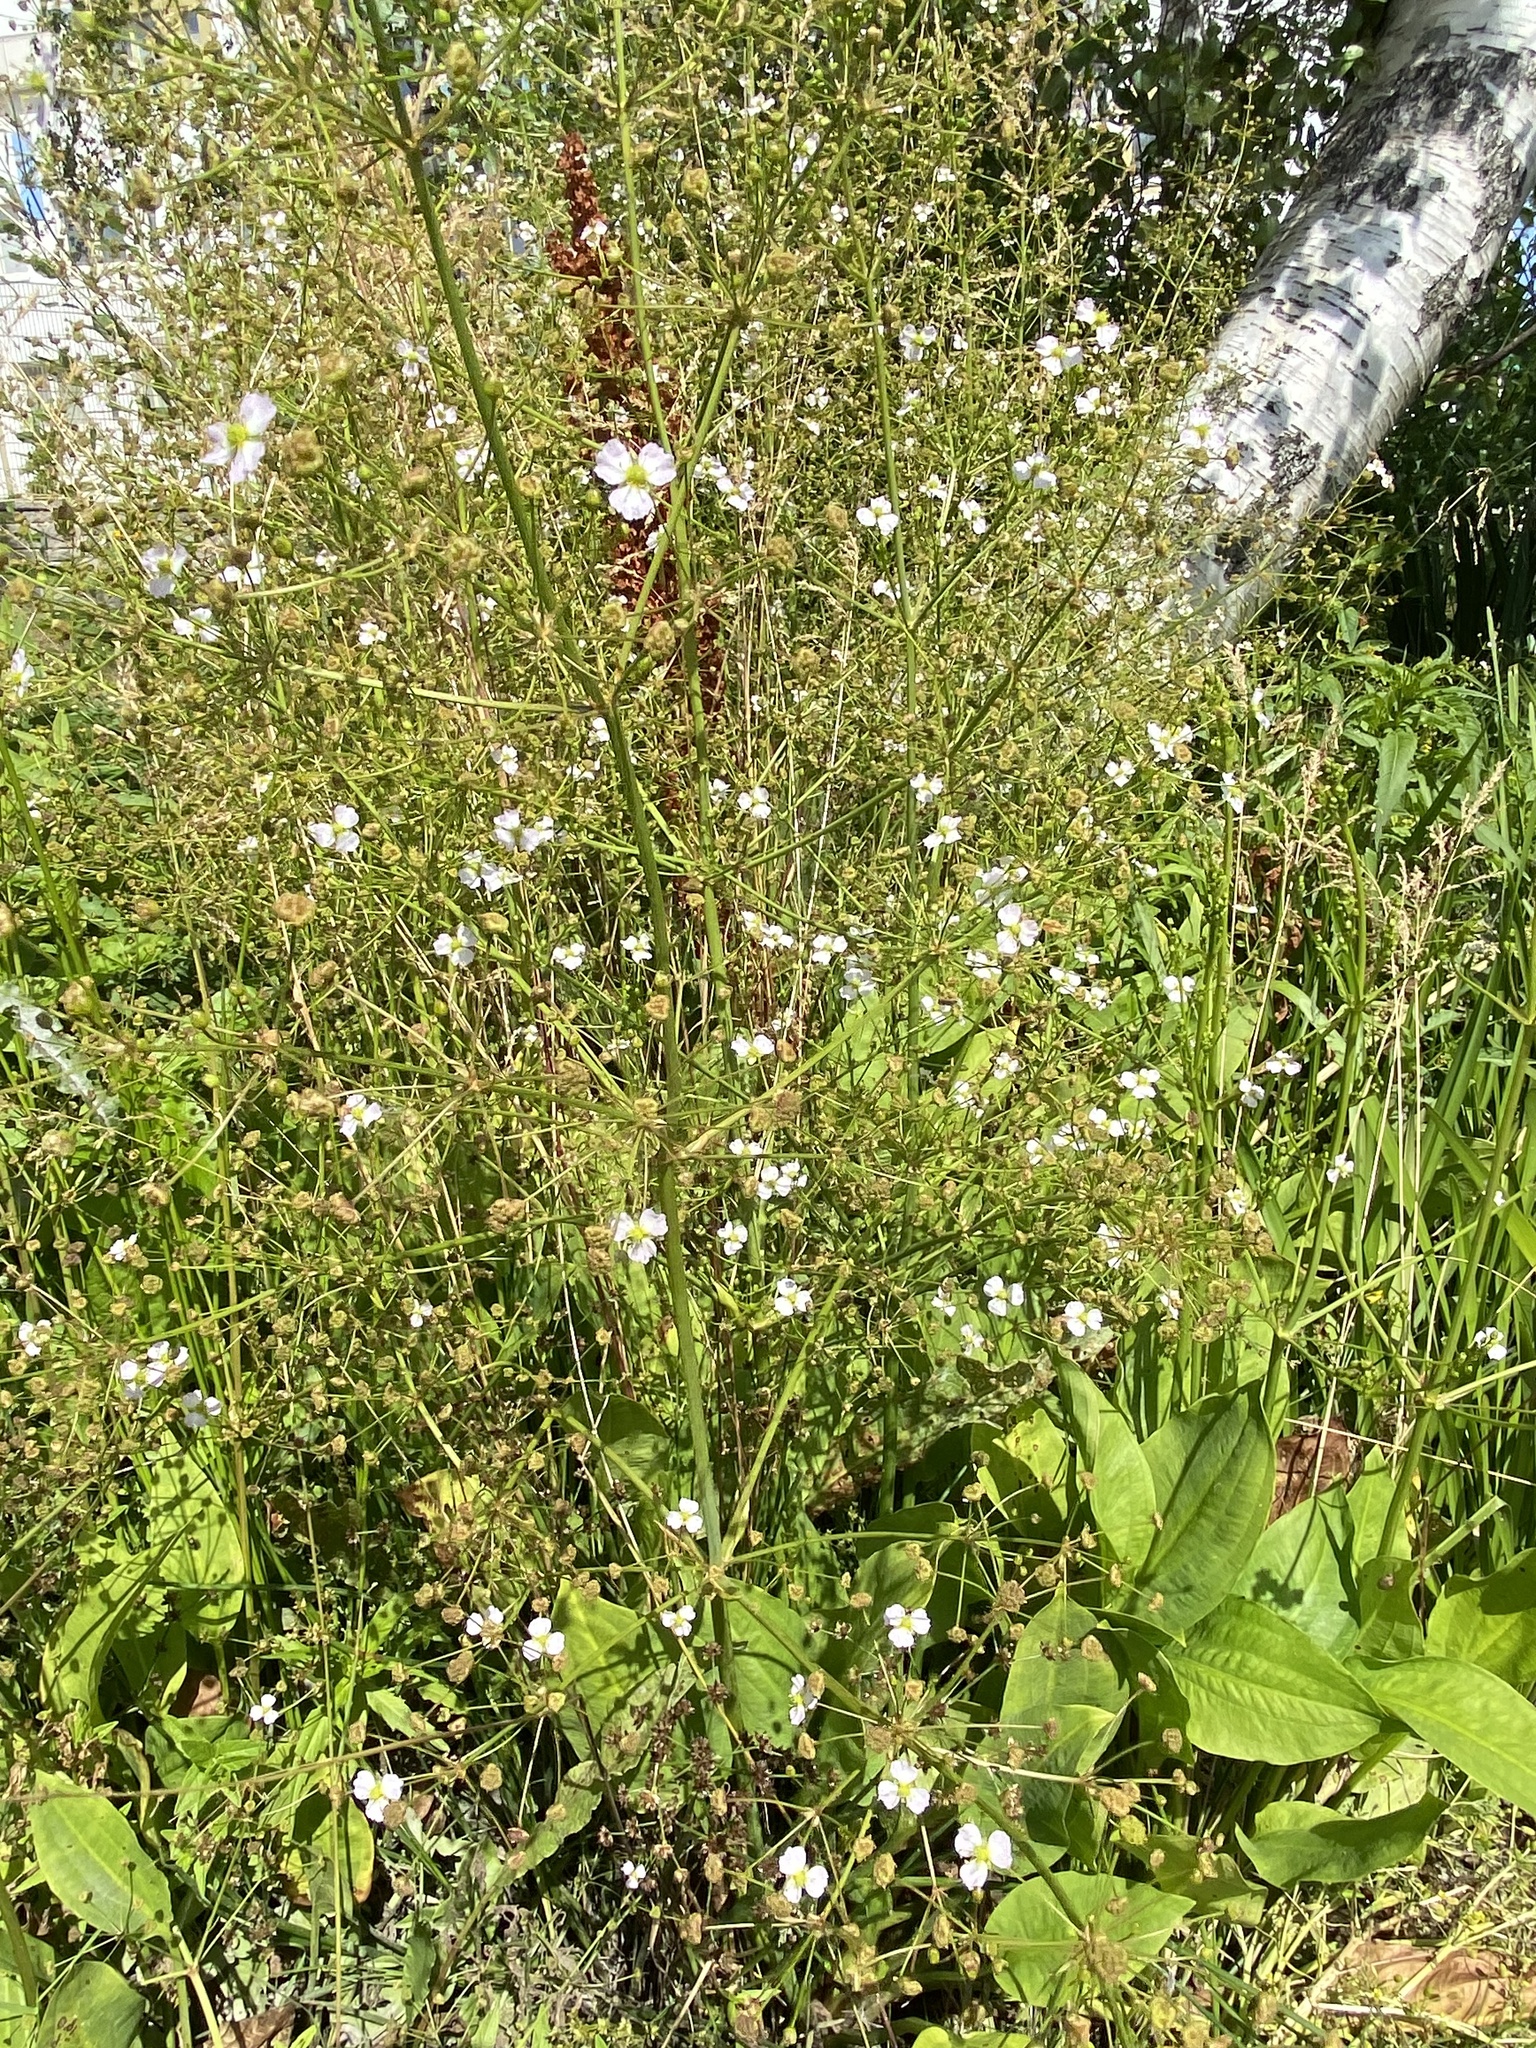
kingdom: Plantae
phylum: Tracheophyta
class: Liliopsida
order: Alismatales
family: Alismataceae
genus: Alisma
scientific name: Alisma plantago-aquatica
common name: Water-plantain
